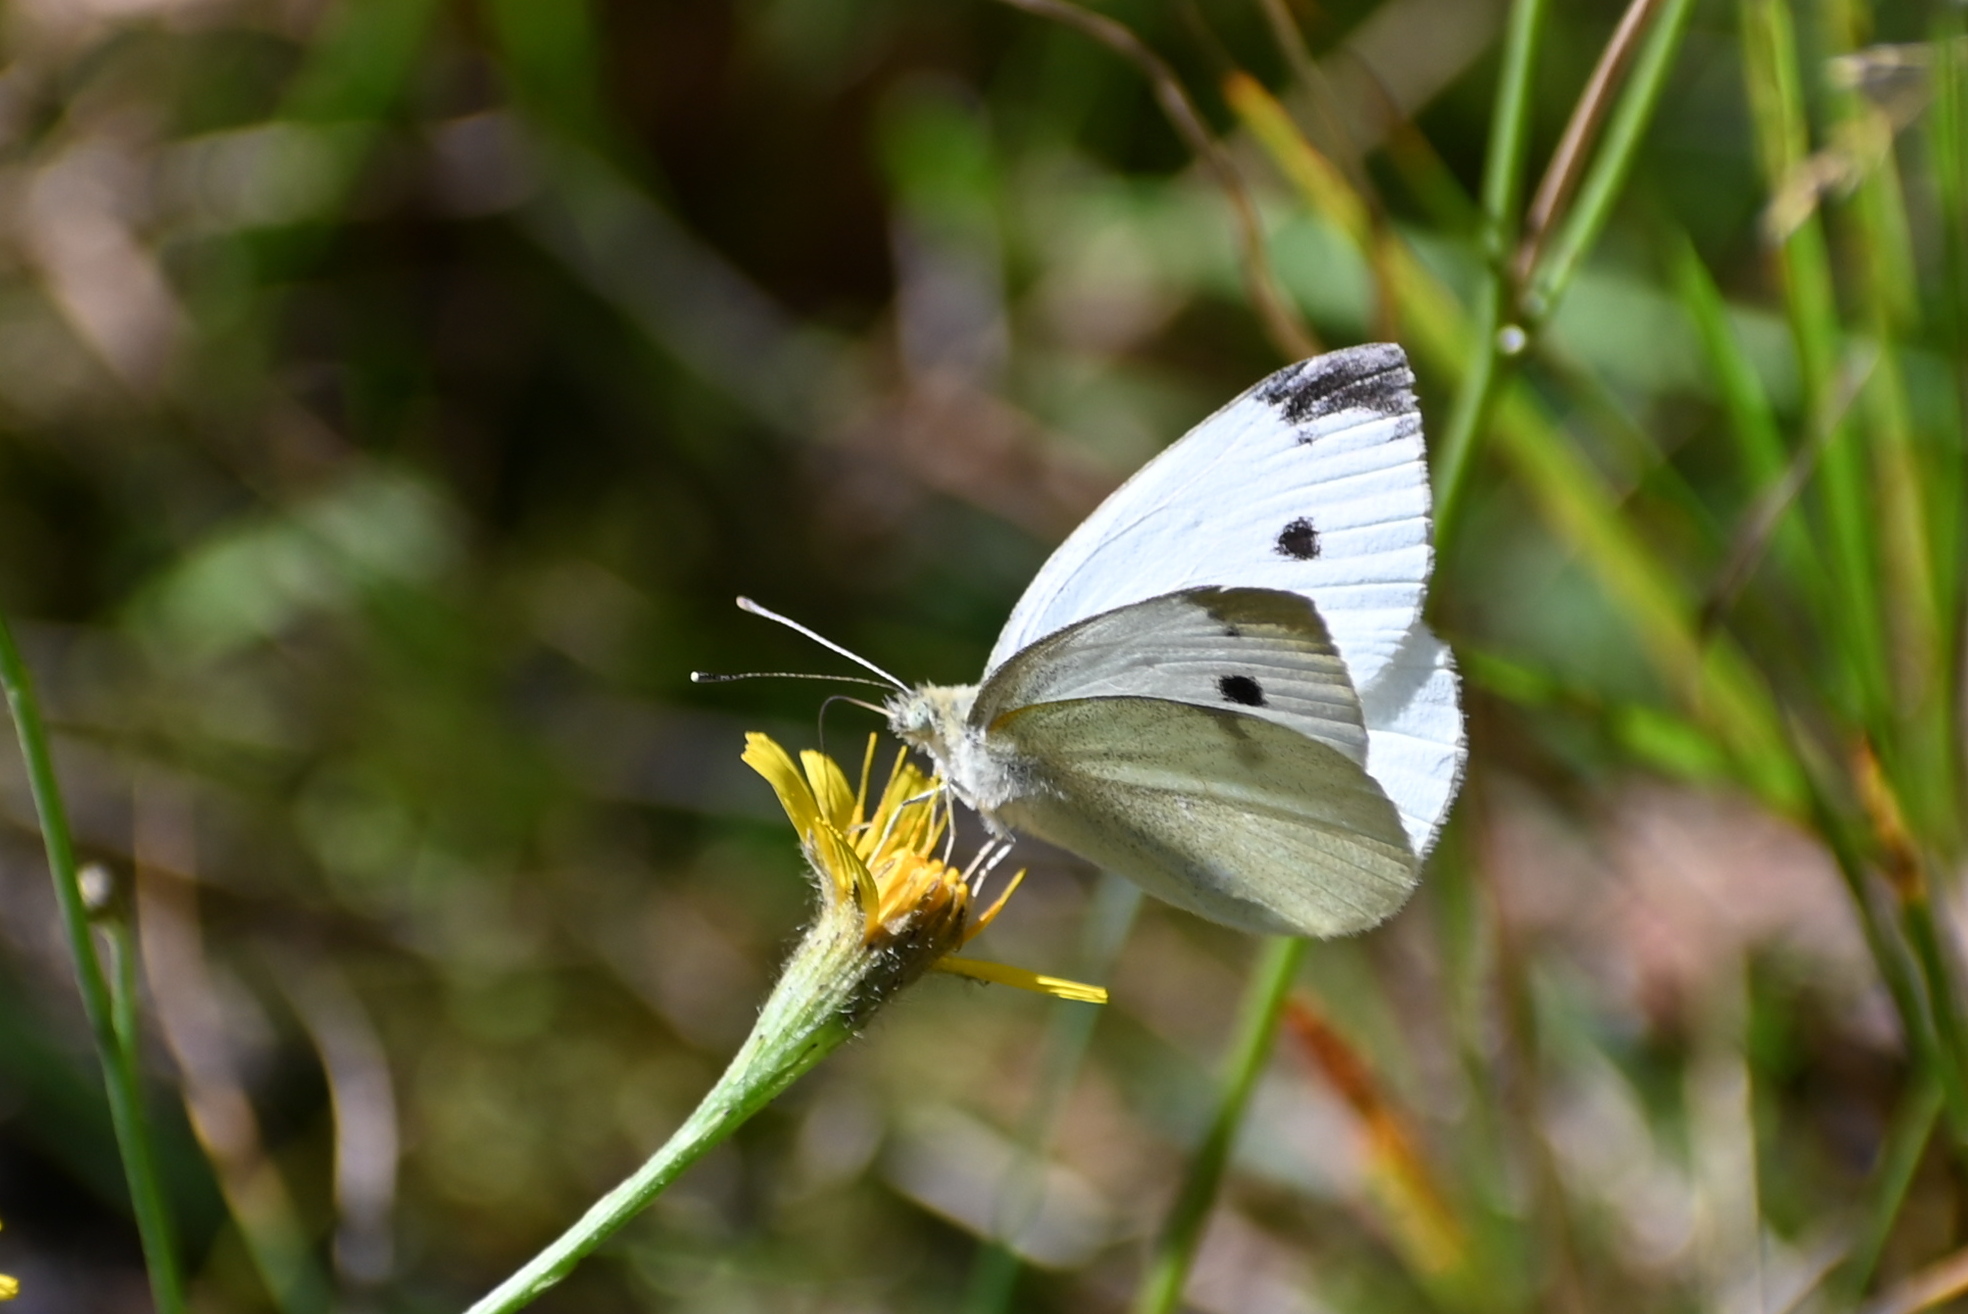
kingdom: Animalia
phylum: Arthropoda
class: Insecta
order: Lepidoptera
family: Pieridae
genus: Pieris
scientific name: Pieris rapae
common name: Small white
